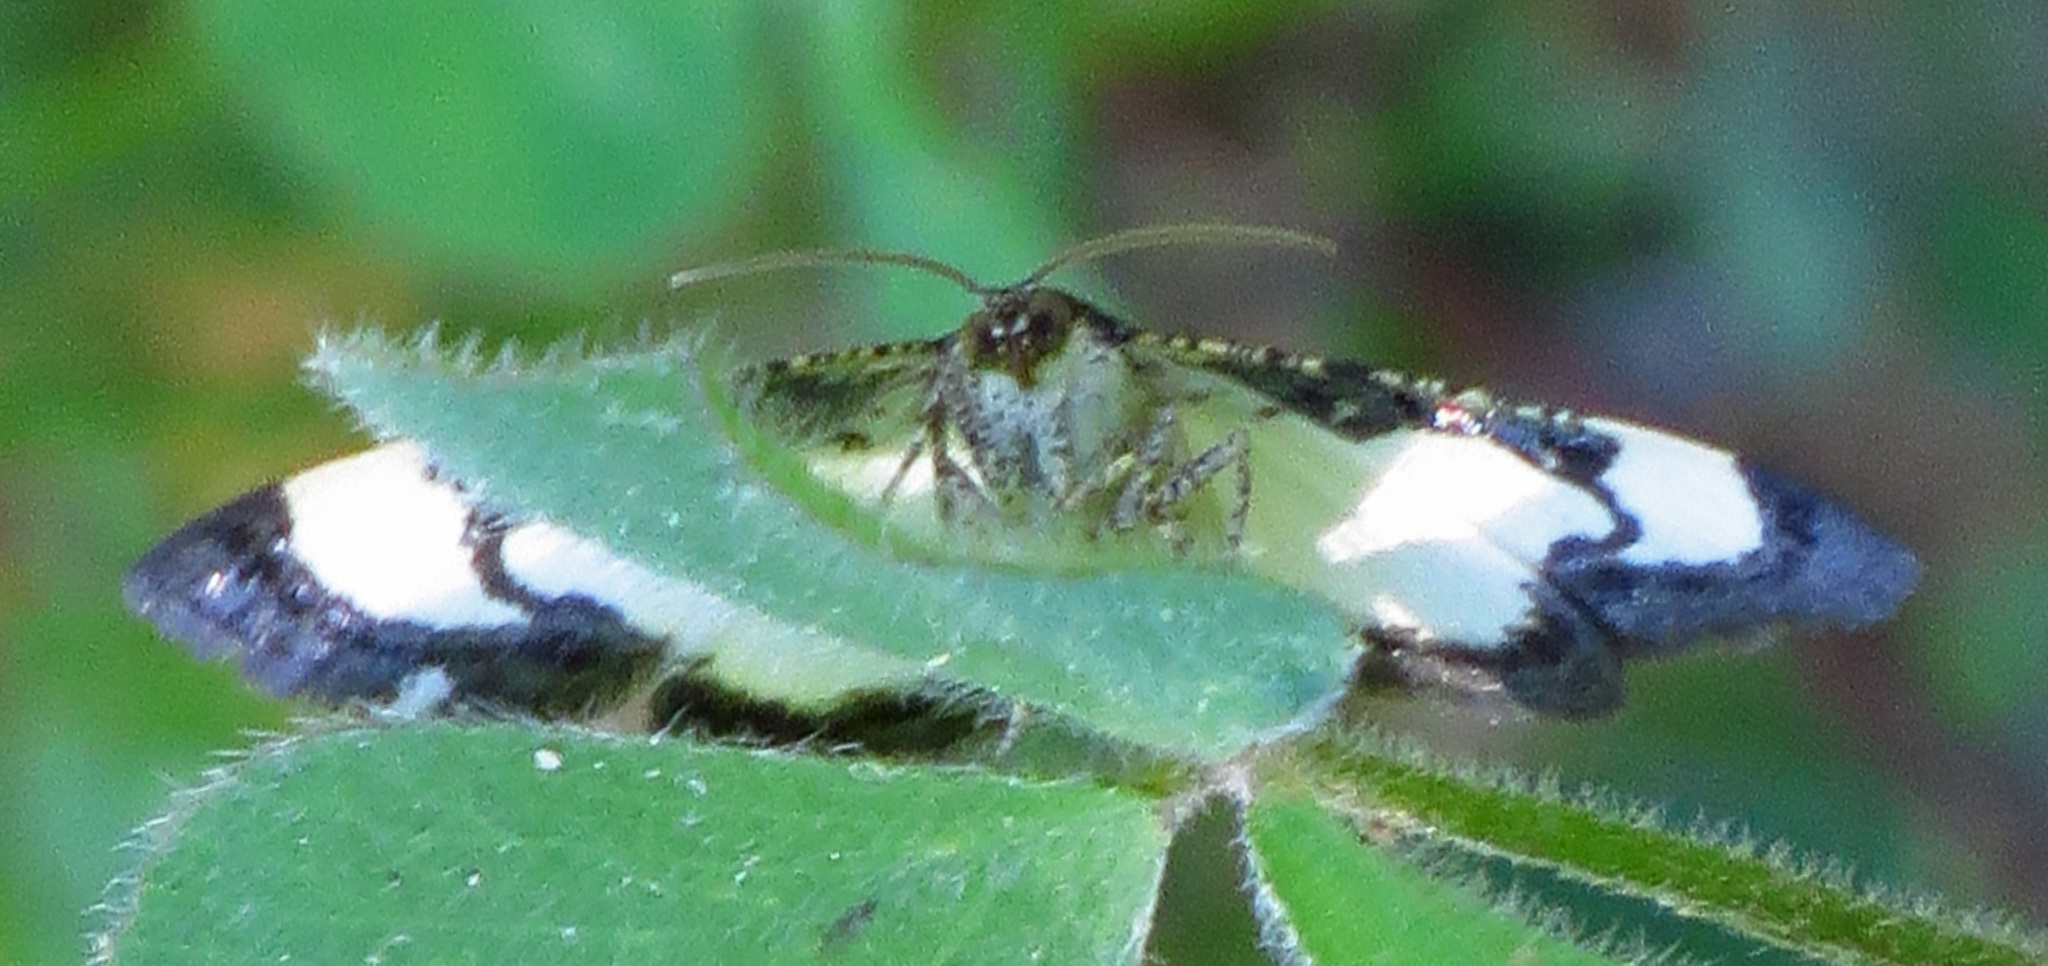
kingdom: Animalia
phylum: Arthropoda
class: Insecta
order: Lepidoptera
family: Geometridae
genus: Heliomata
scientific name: Heliomata cycladata
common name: Common spring moth
